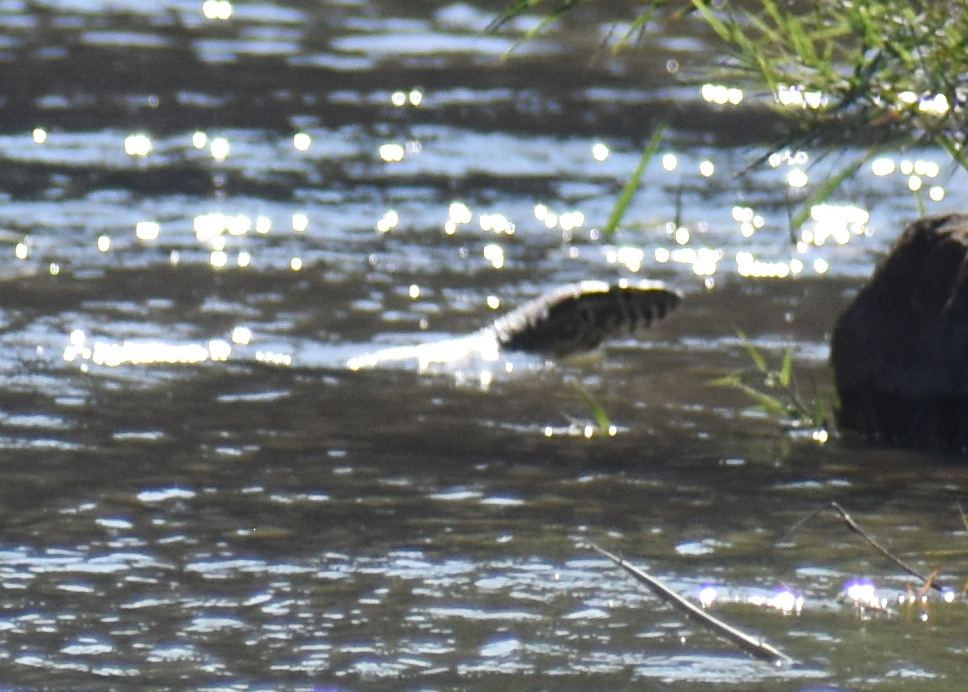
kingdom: Animalia
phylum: Chordata
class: Squamata
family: Varanidae
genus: Varanus
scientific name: Varanus niloticus
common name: Nile monitor
